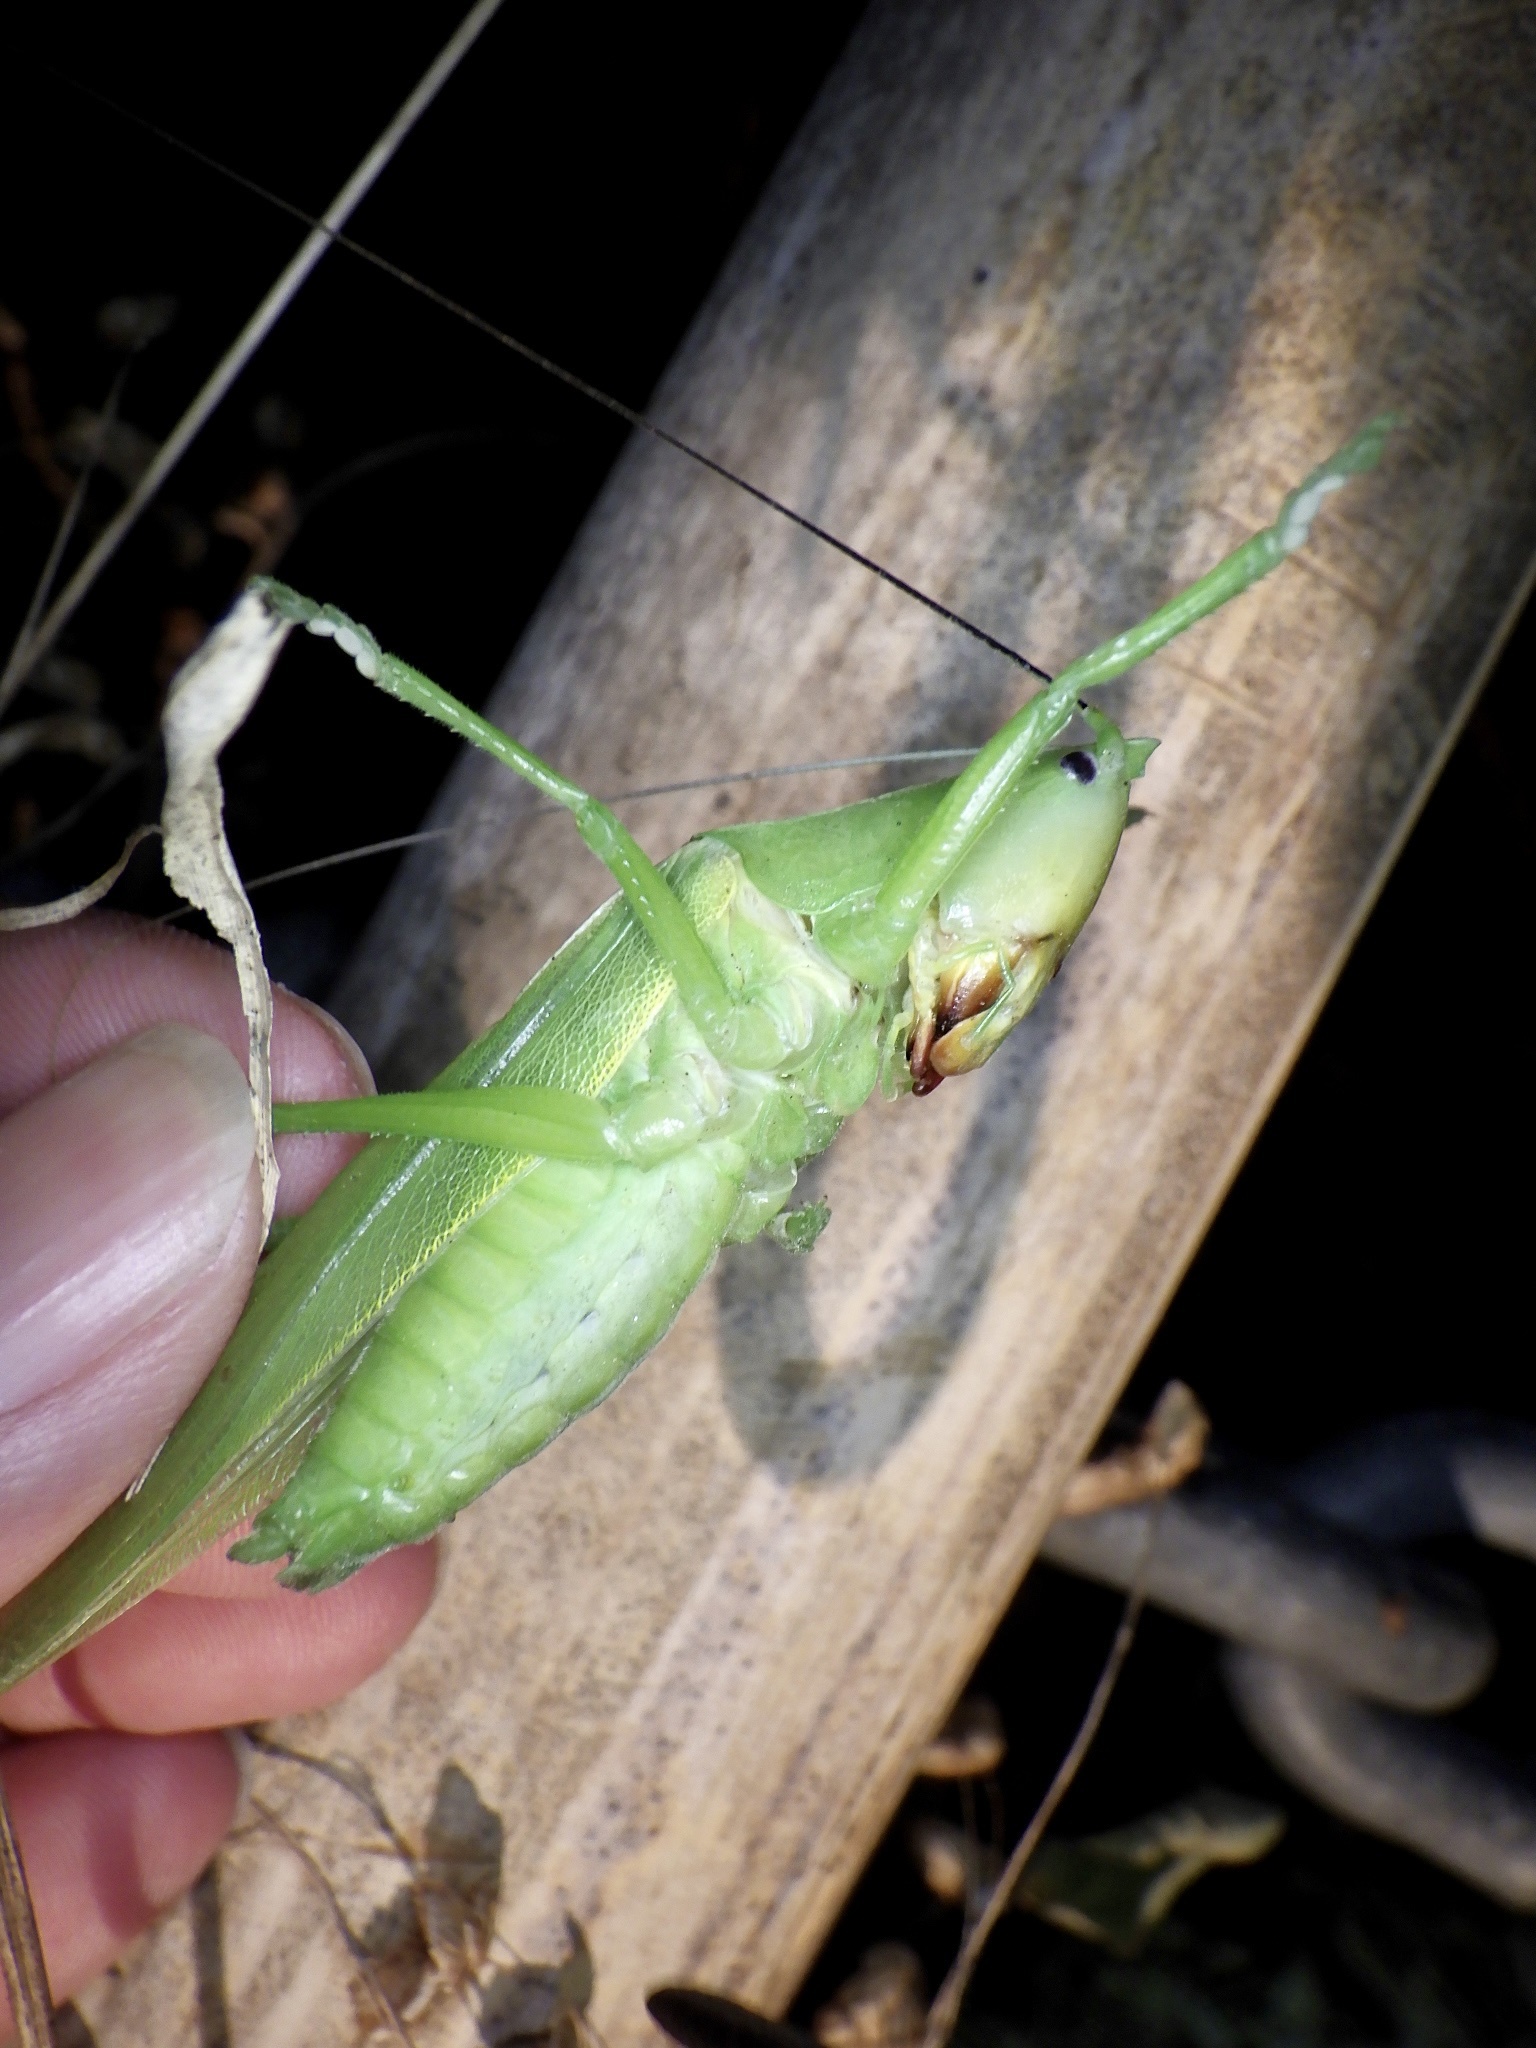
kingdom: Animalia
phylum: Arthropoda
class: Insecta
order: Orthoptera
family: Tettigoniidae
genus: Parvarhynchus
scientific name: Parvarhynchus japonicus
